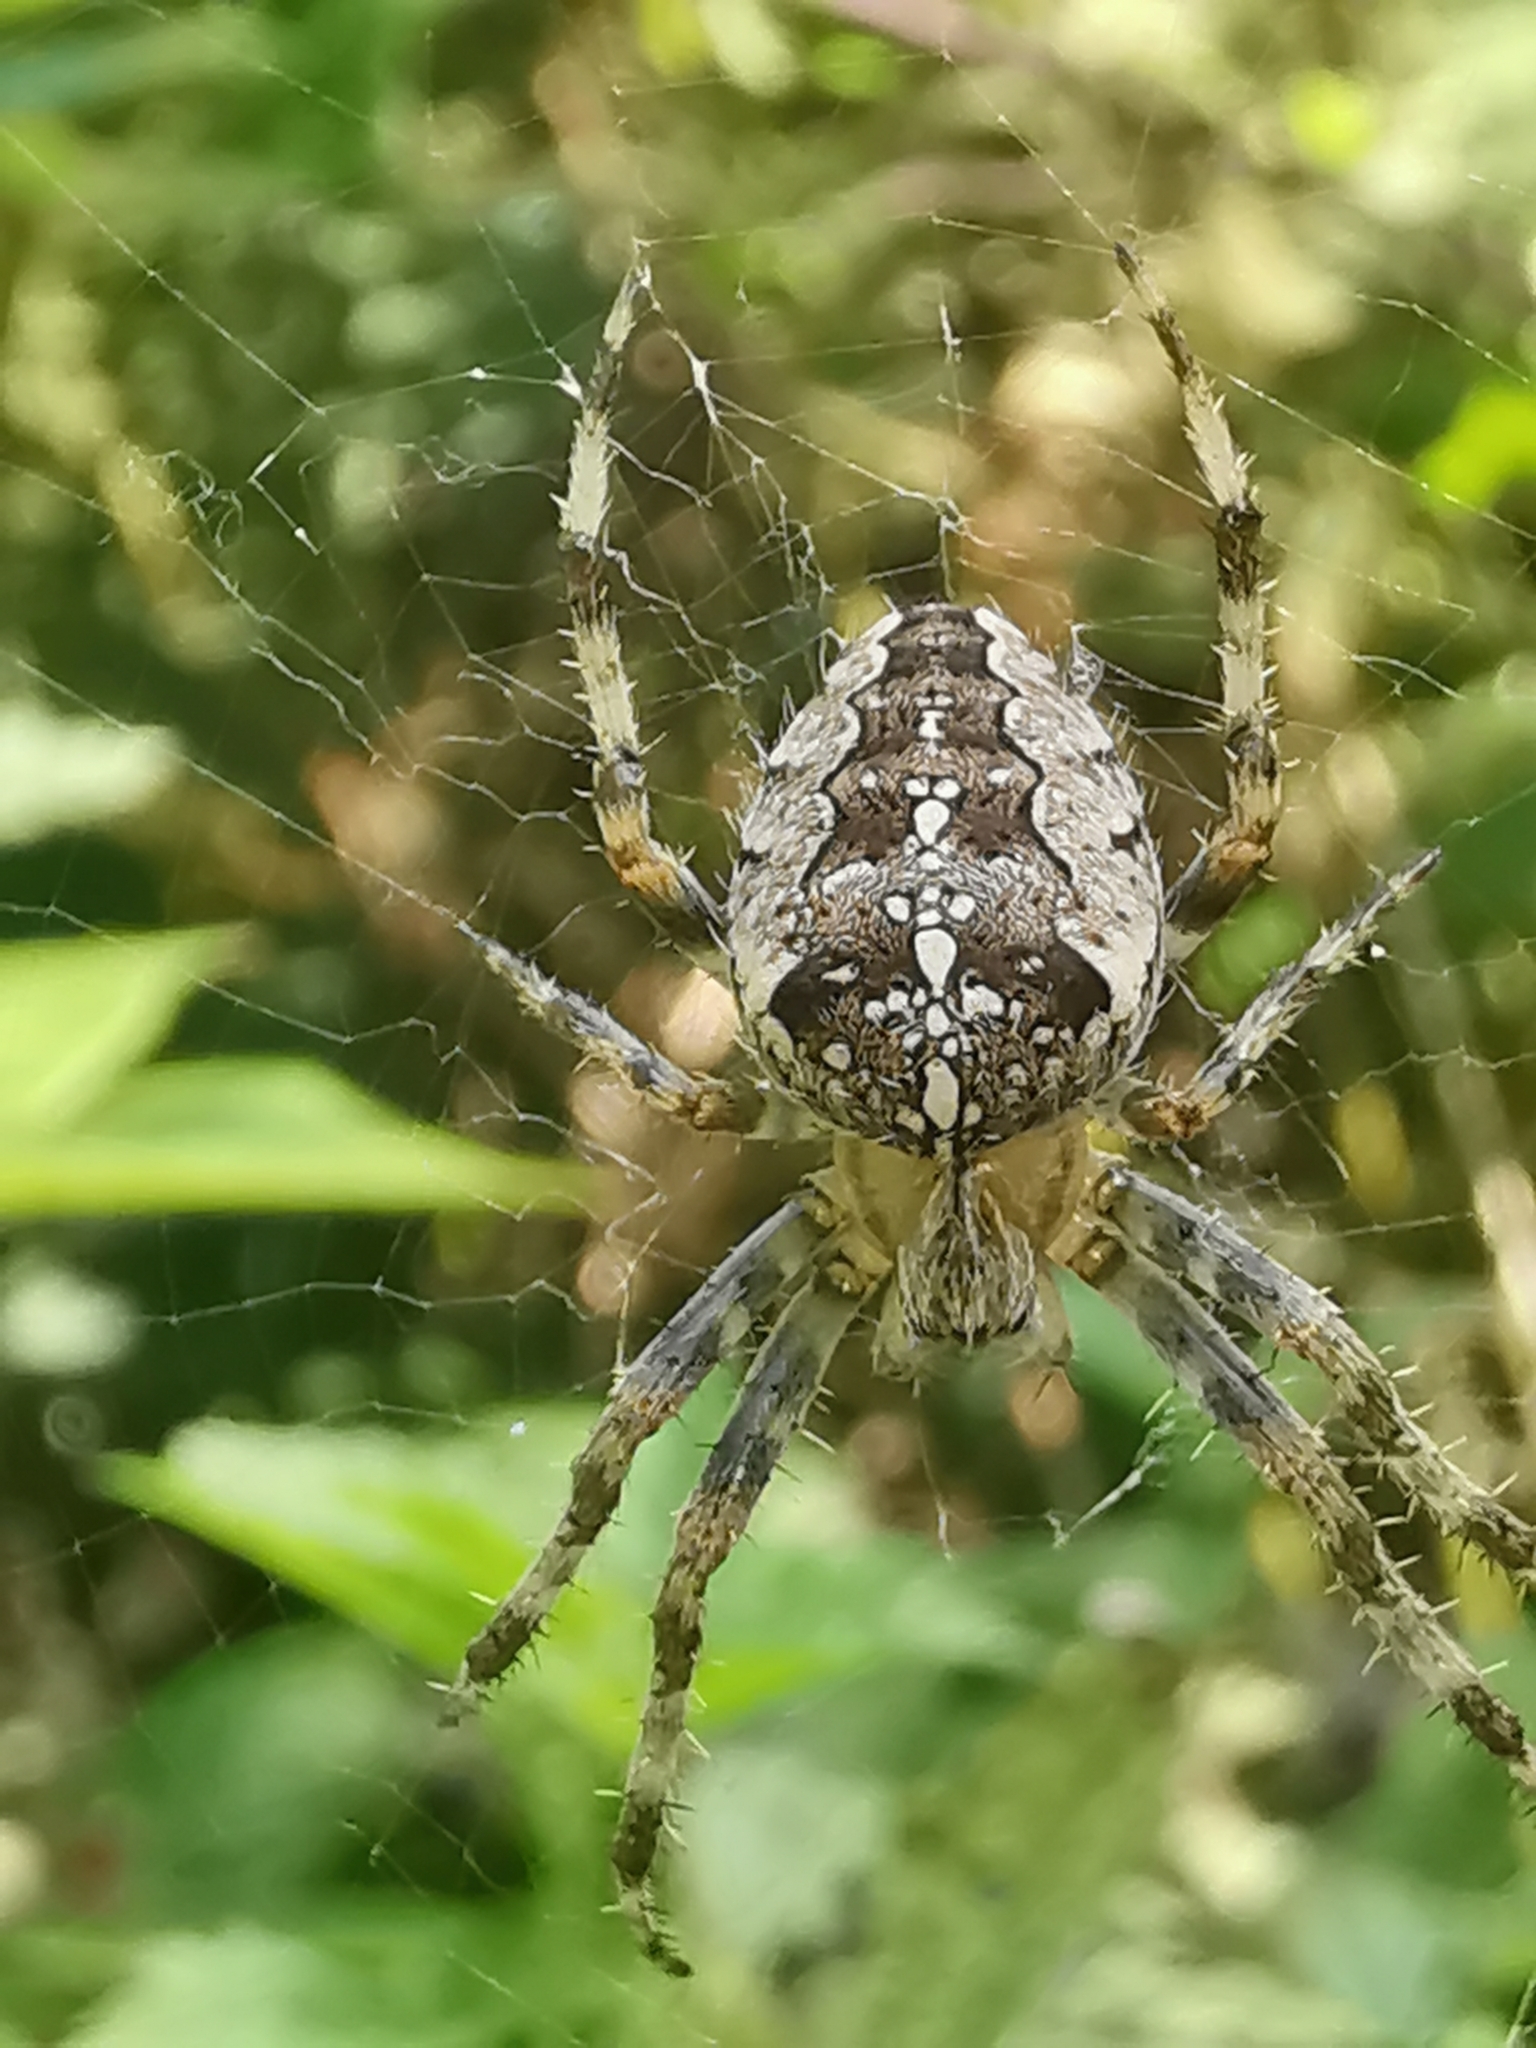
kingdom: Animalia
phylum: Arthropoda
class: Arachnida
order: Araneae
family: Araneidae
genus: Araneus
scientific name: Araneus diadematus
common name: Cross orbweaver
